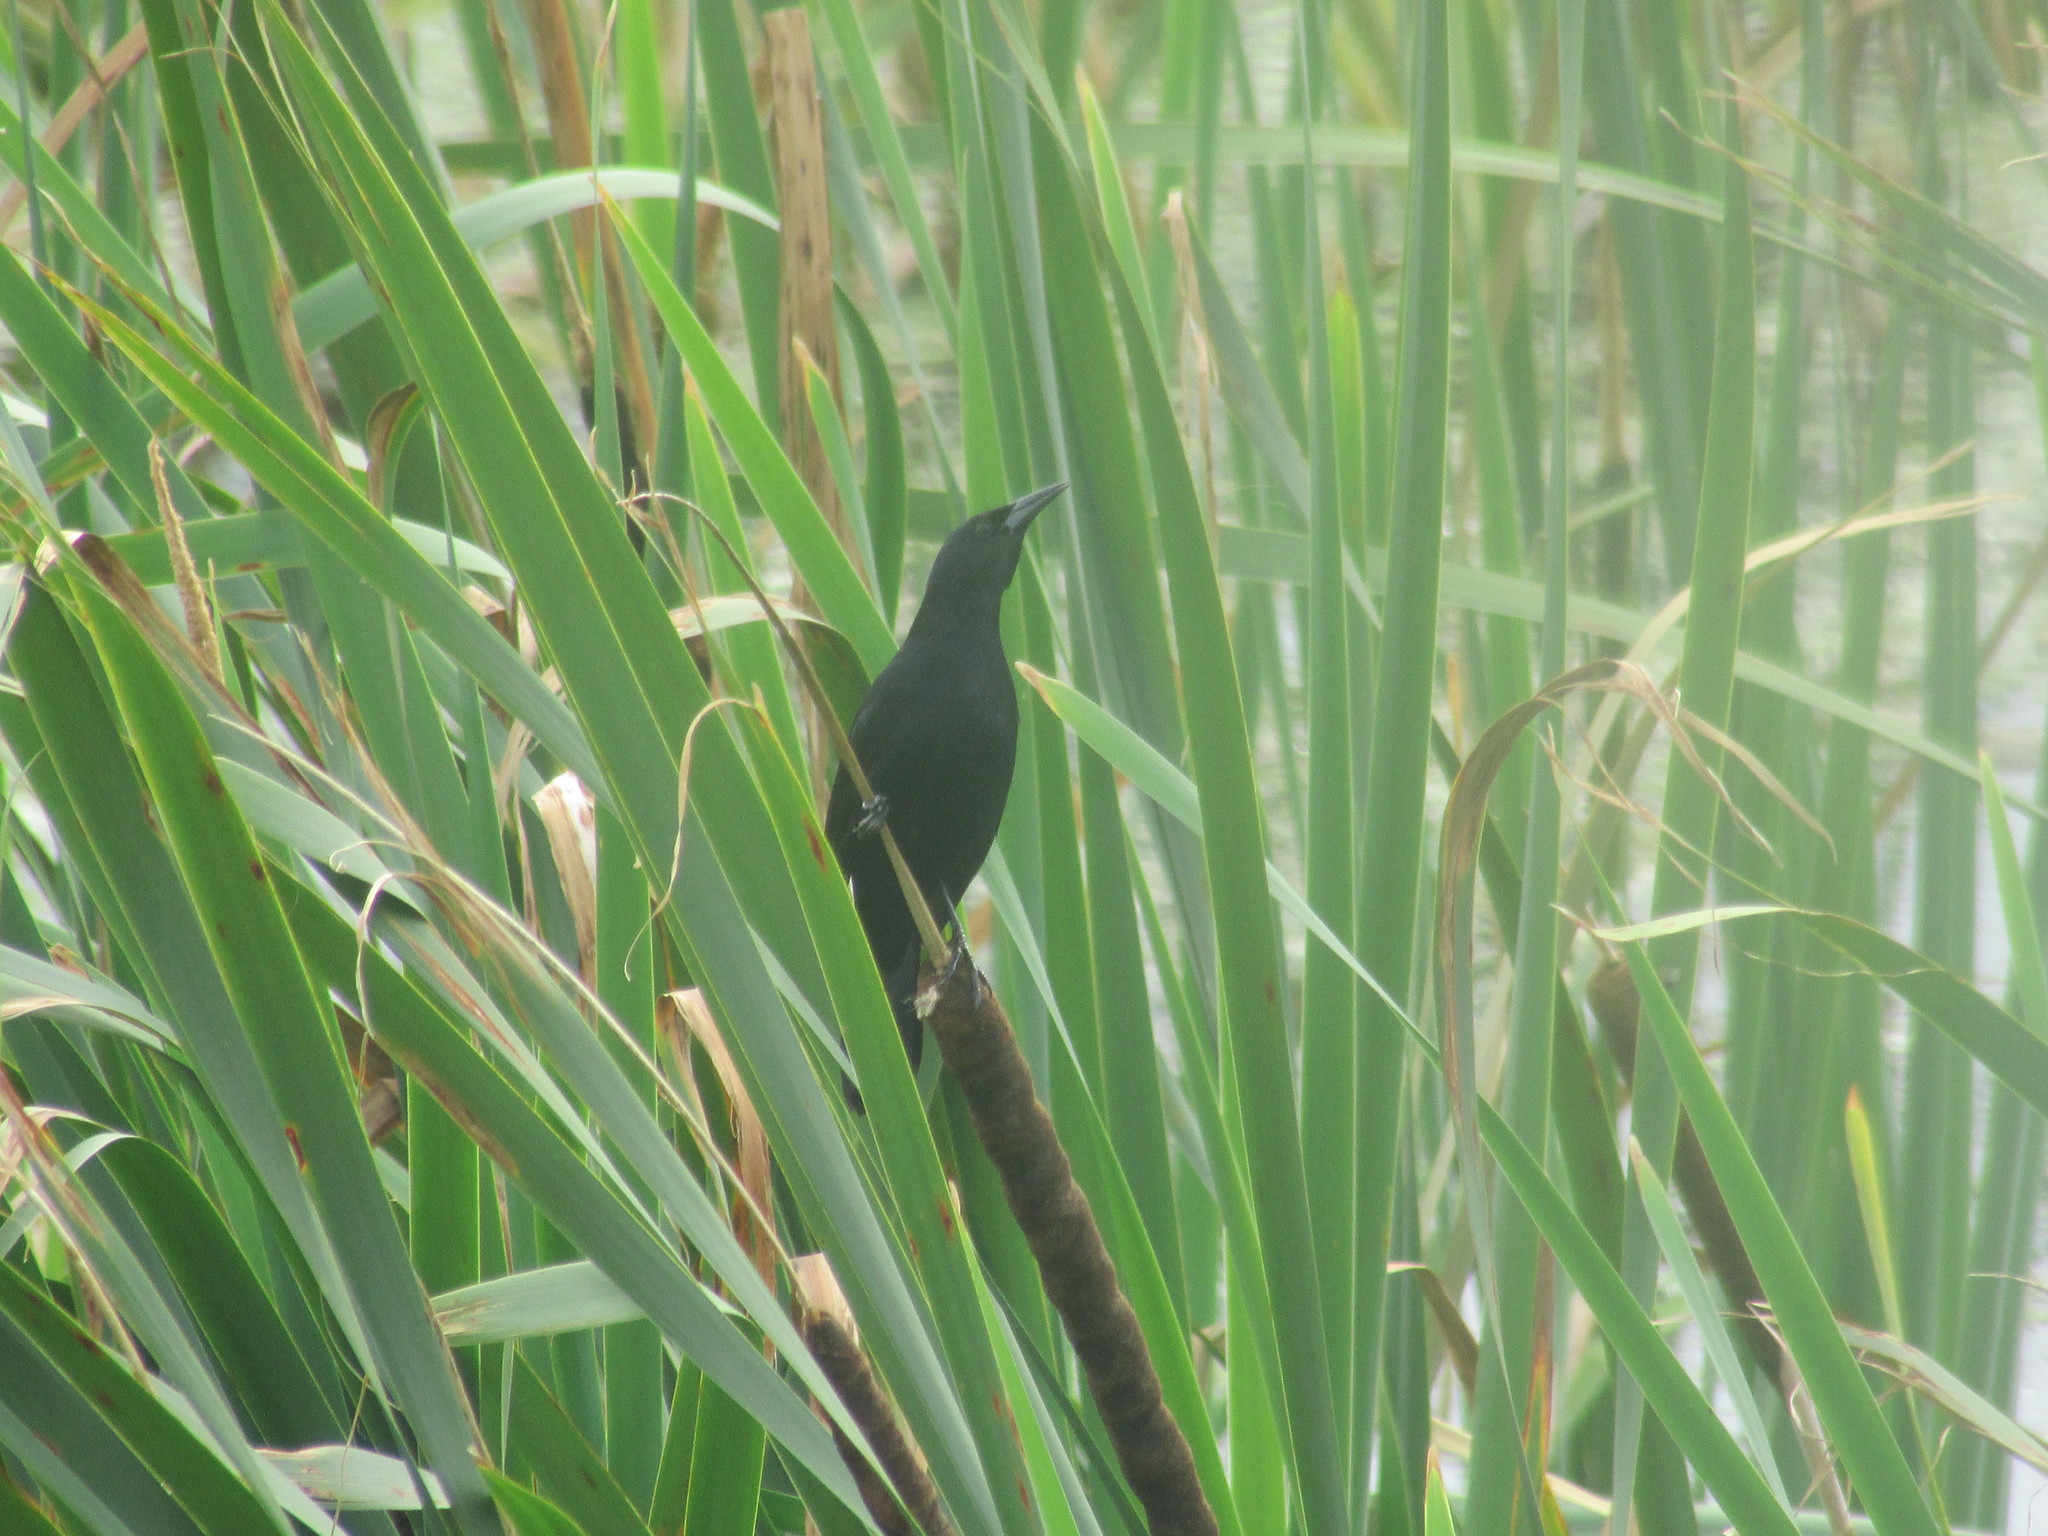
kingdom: Animalia
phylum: Chordata
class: Aves
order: Passeriformes
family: Icteridae
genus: Agelasticus
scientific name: Agelasticus cyanopus
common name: Unicolored blackbird
